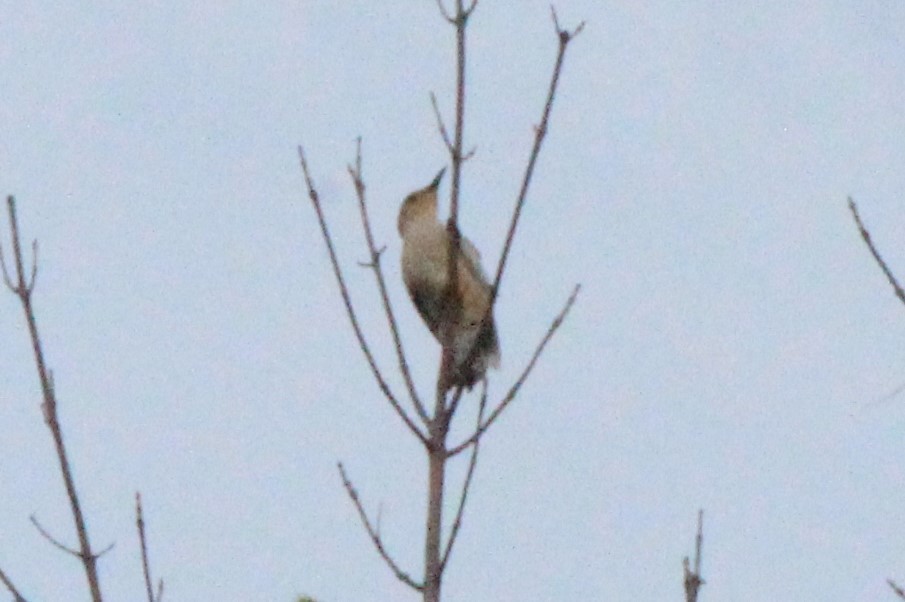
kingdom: Animalia
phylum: Chordata
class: Aves
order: Piciformes
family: Picidae
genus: Melanerpes
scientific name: Melanerpes carolinus
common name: Red-bellied woodpecker
